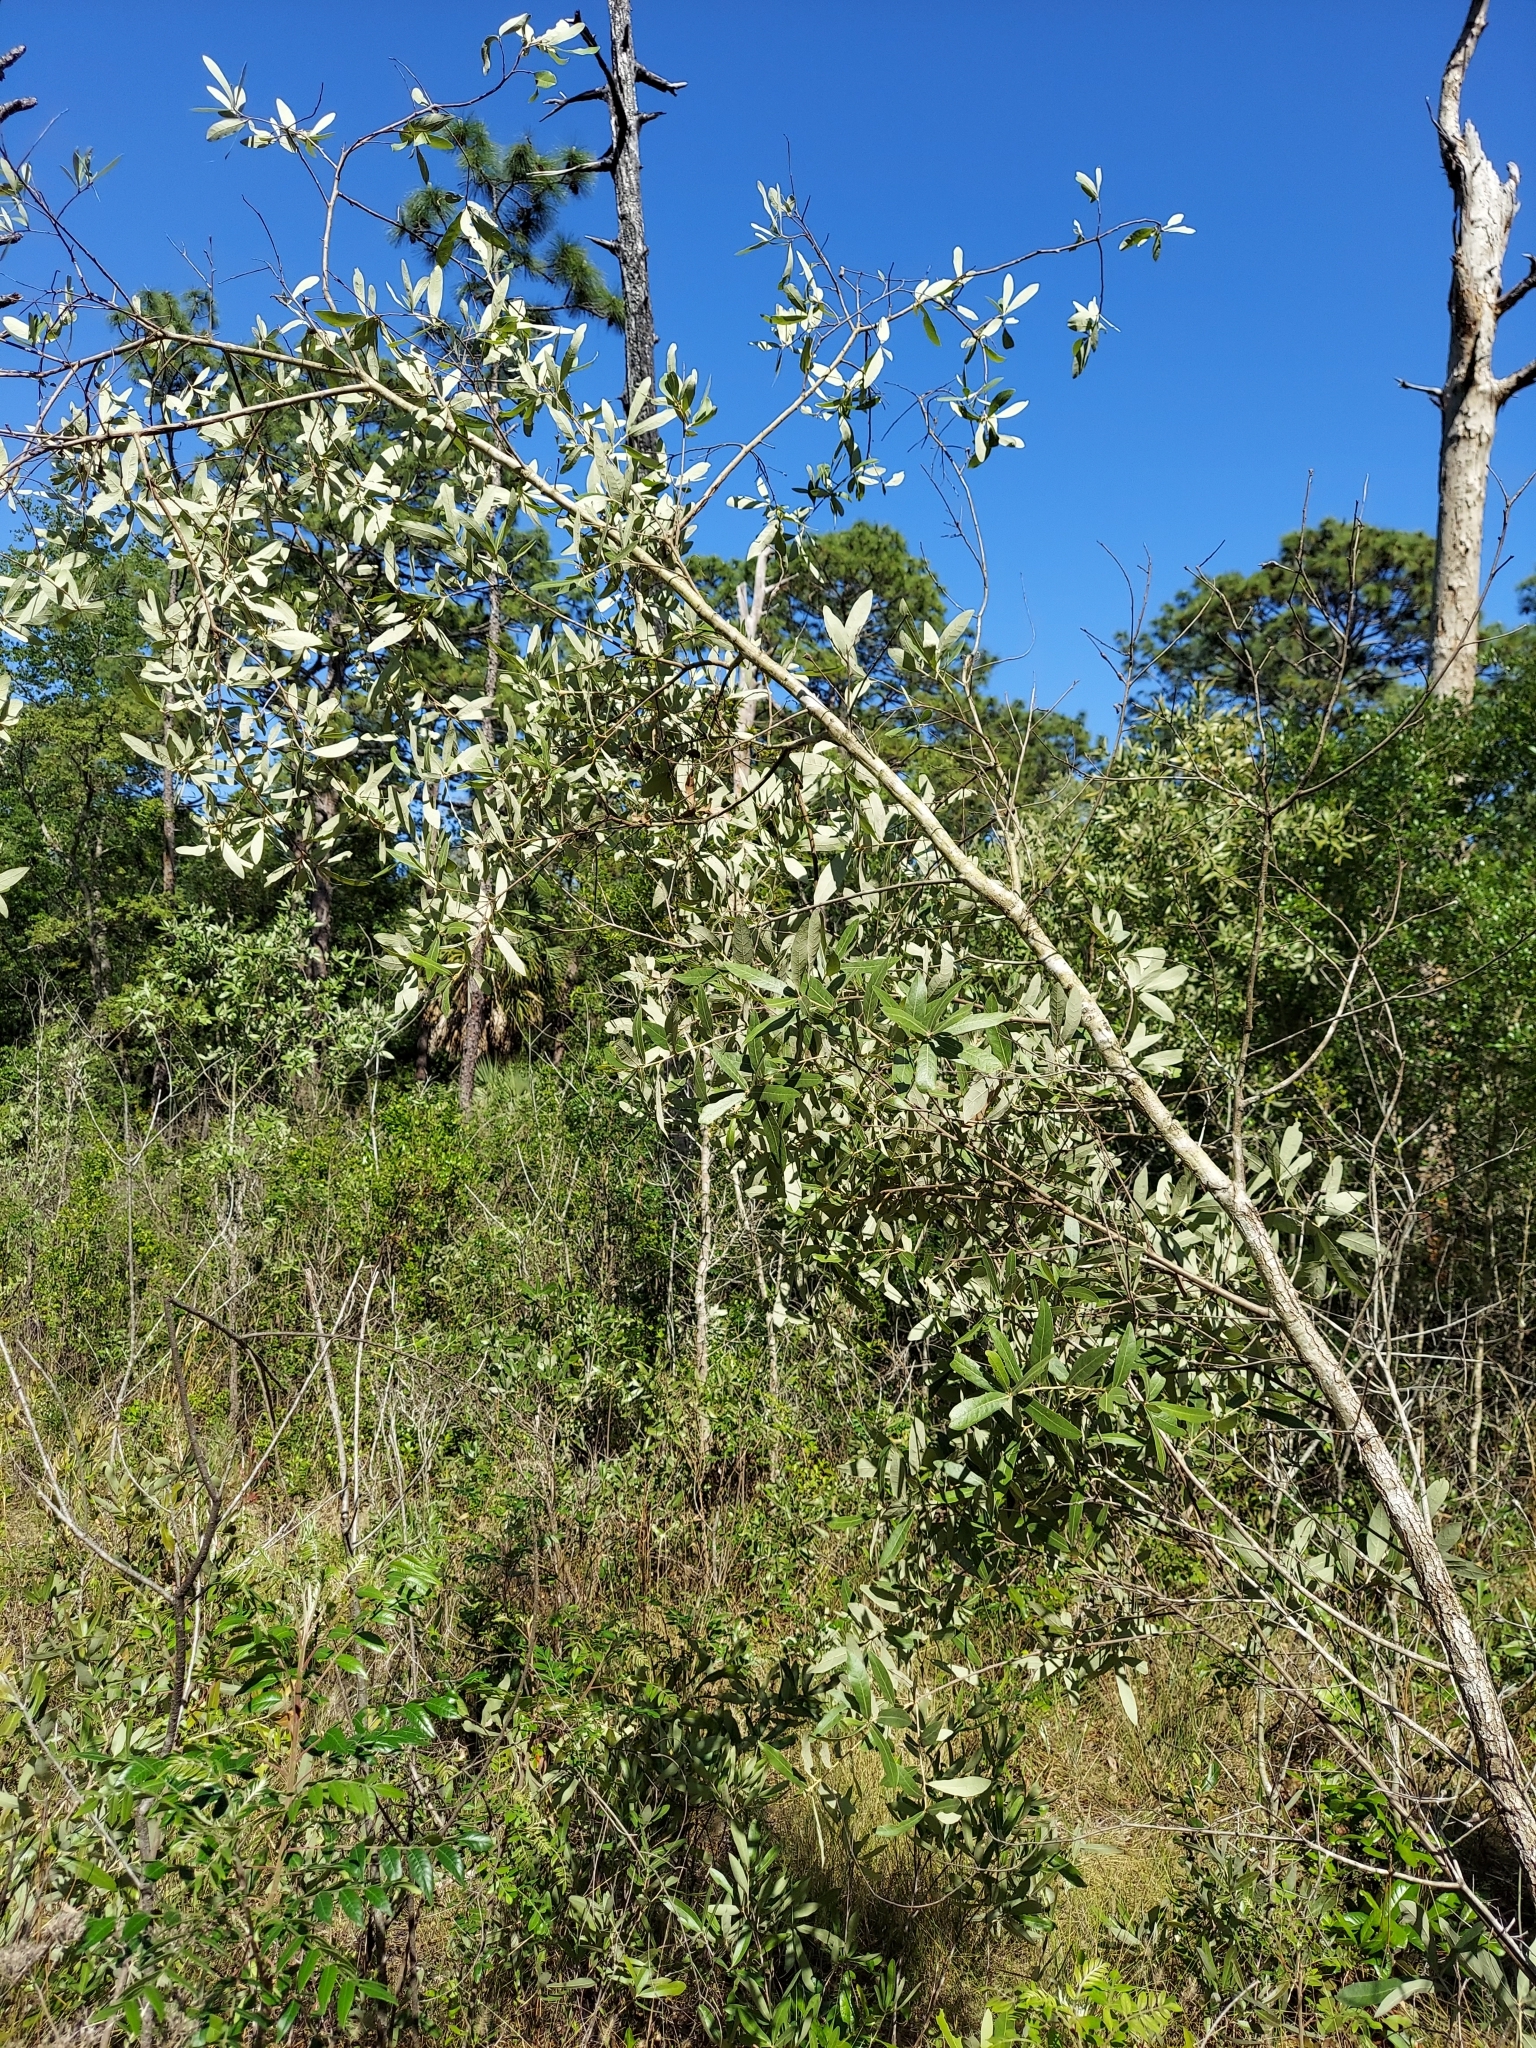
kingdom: Plantae
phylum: Tracheophyta
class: Magnoliopsida
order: Fagales
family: Fagaceae
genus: Quercus
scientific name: Quercus incana
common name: Bluejack oak
